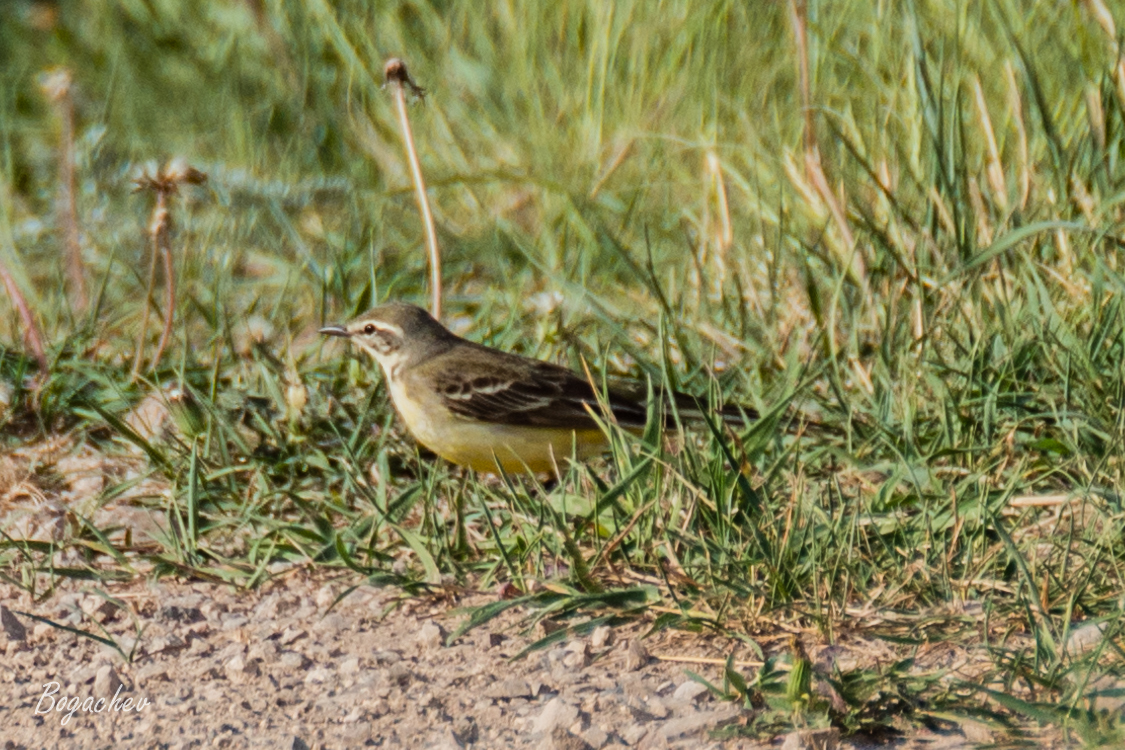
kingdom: Animalia
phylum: Chordata
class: Aves
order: Passeriformes
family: Motacillidae
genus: Motacilla
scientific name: Motacilla flava
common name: Western yellow wagtail
